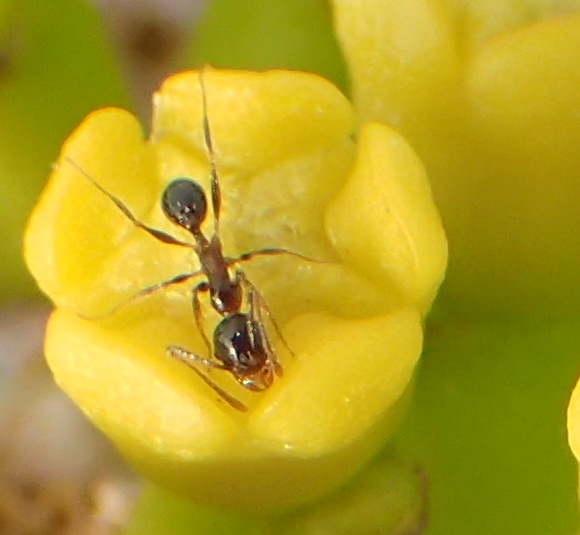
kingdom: Animalia
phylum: Arthropoda
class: Insecta
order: Hymenoptera
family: Formicidae
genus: Pheidole
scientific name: Pheidole tenuinodis
